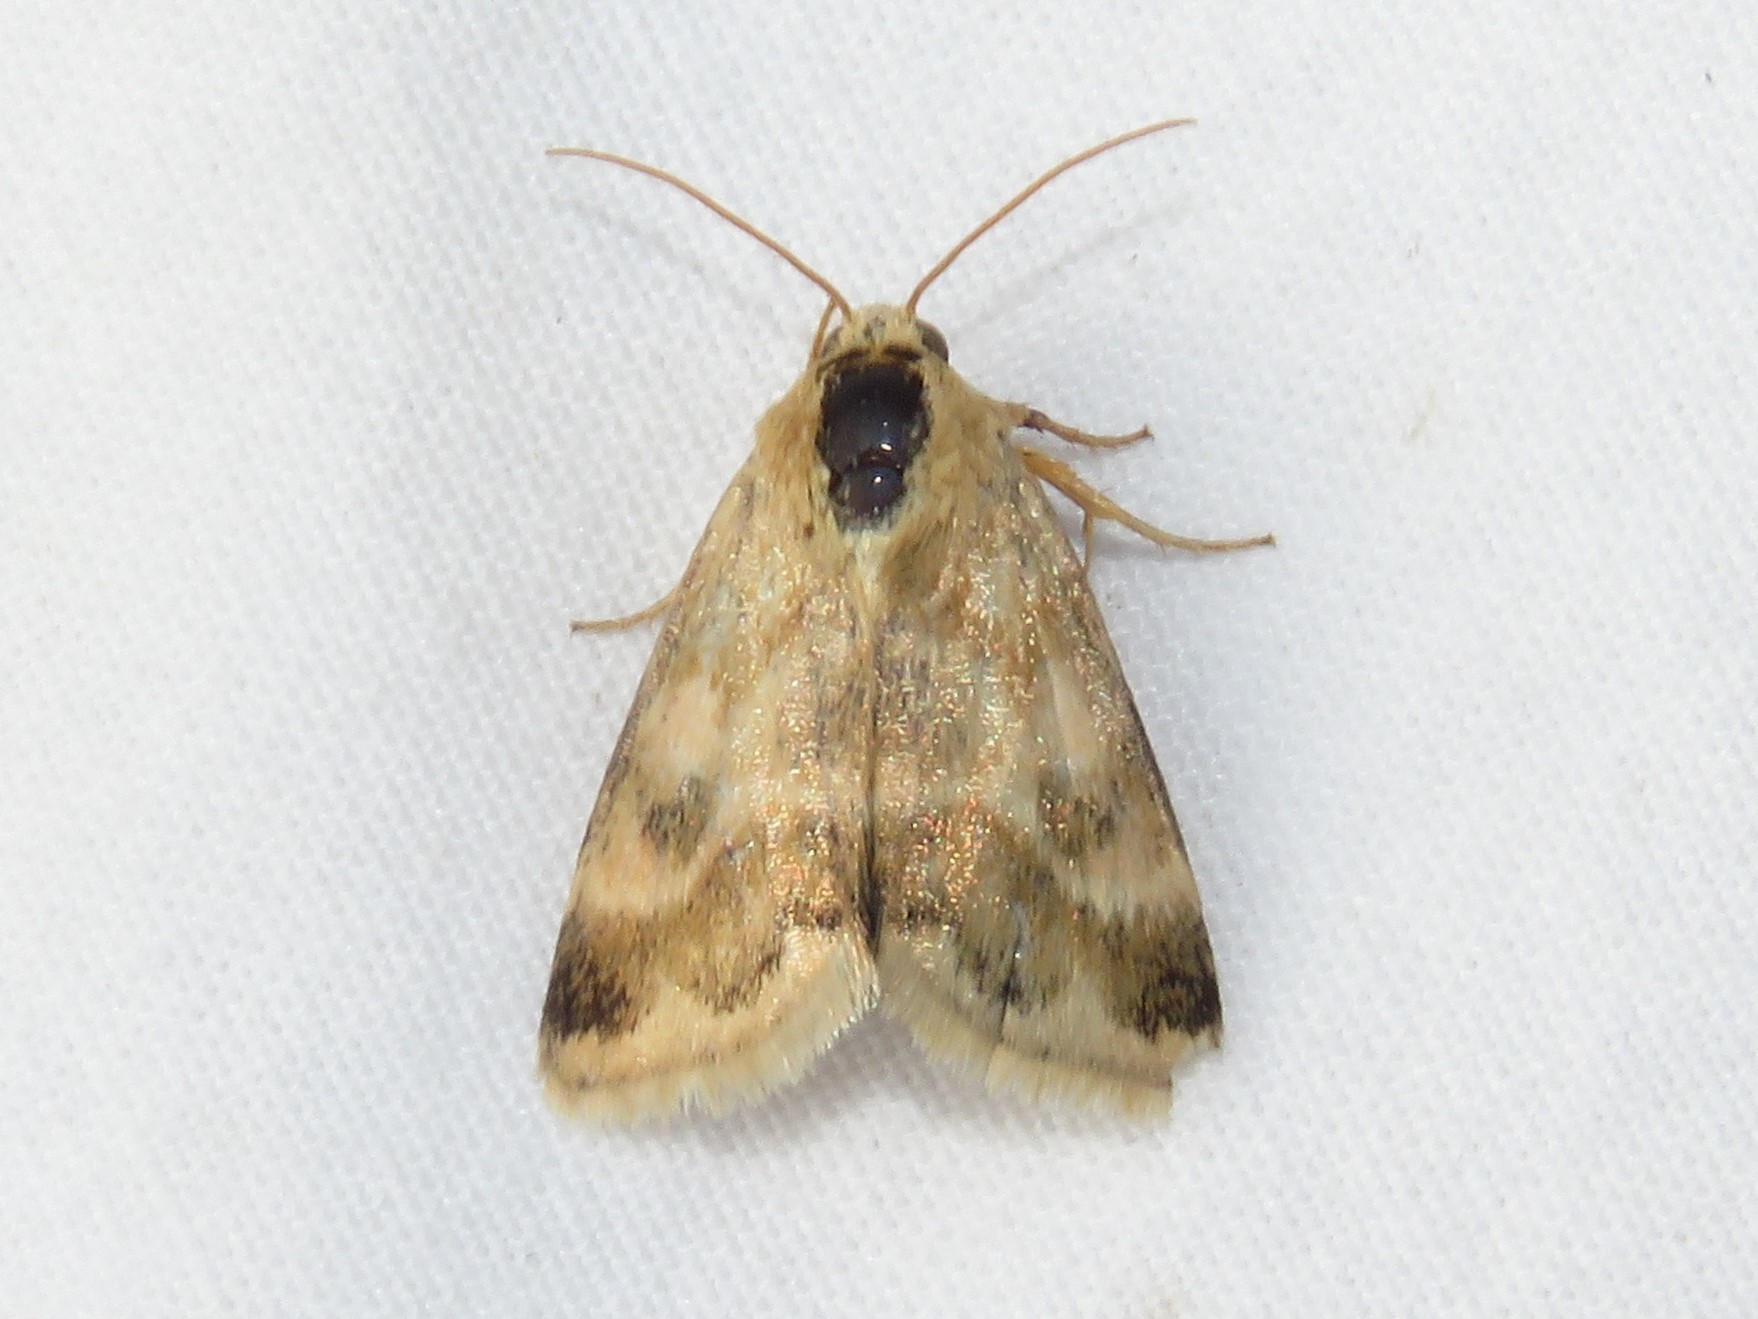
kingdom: Animalia
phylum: Arthropoda
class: Insecta
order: Lepidoptera
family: Noctuidae
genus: Schinia
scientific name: Schinia lynx
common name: Lynx flower moth
